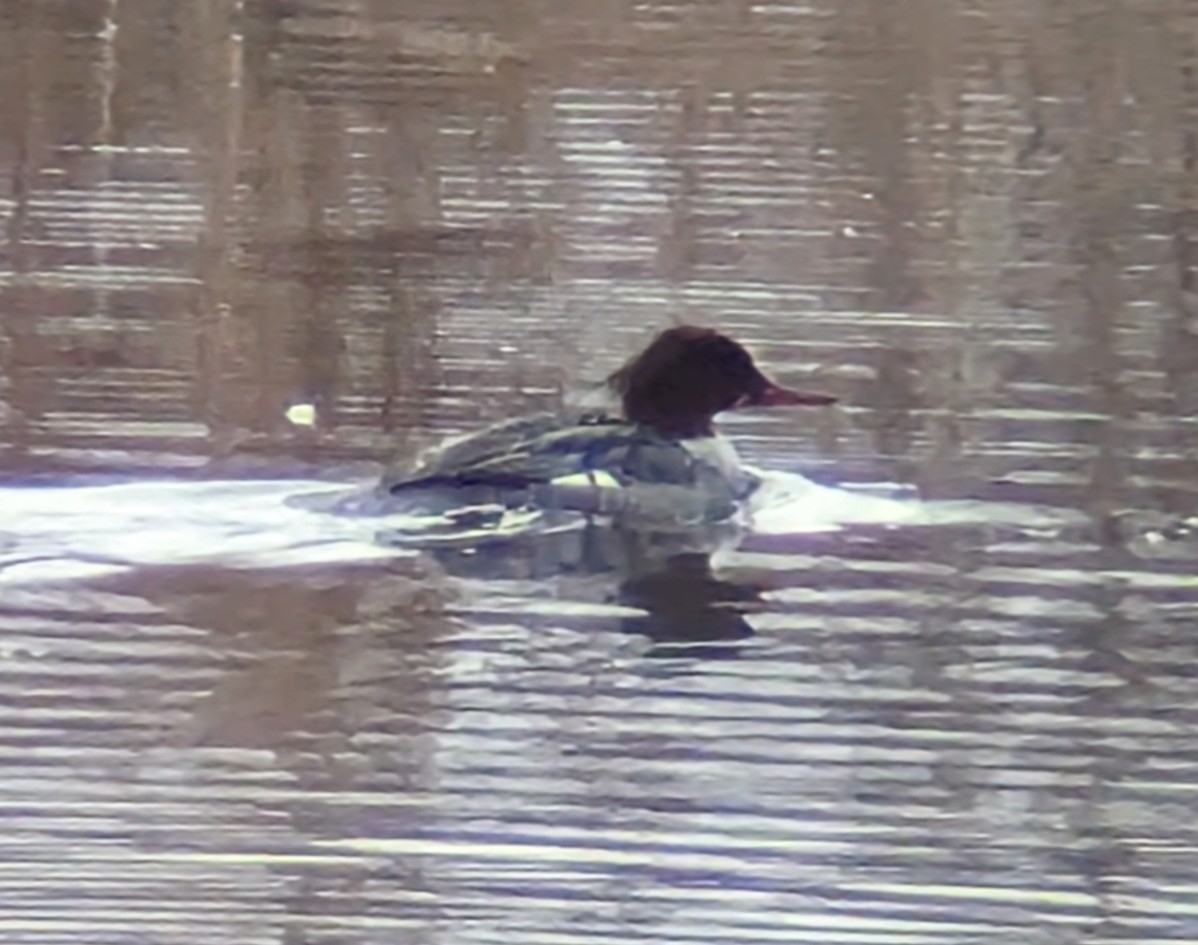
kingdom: Animalia
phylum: Chordata
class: Aves
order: Anseriformes
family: Anatidae
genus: Mergus
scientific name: Mergus merganser
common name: Common merganser
